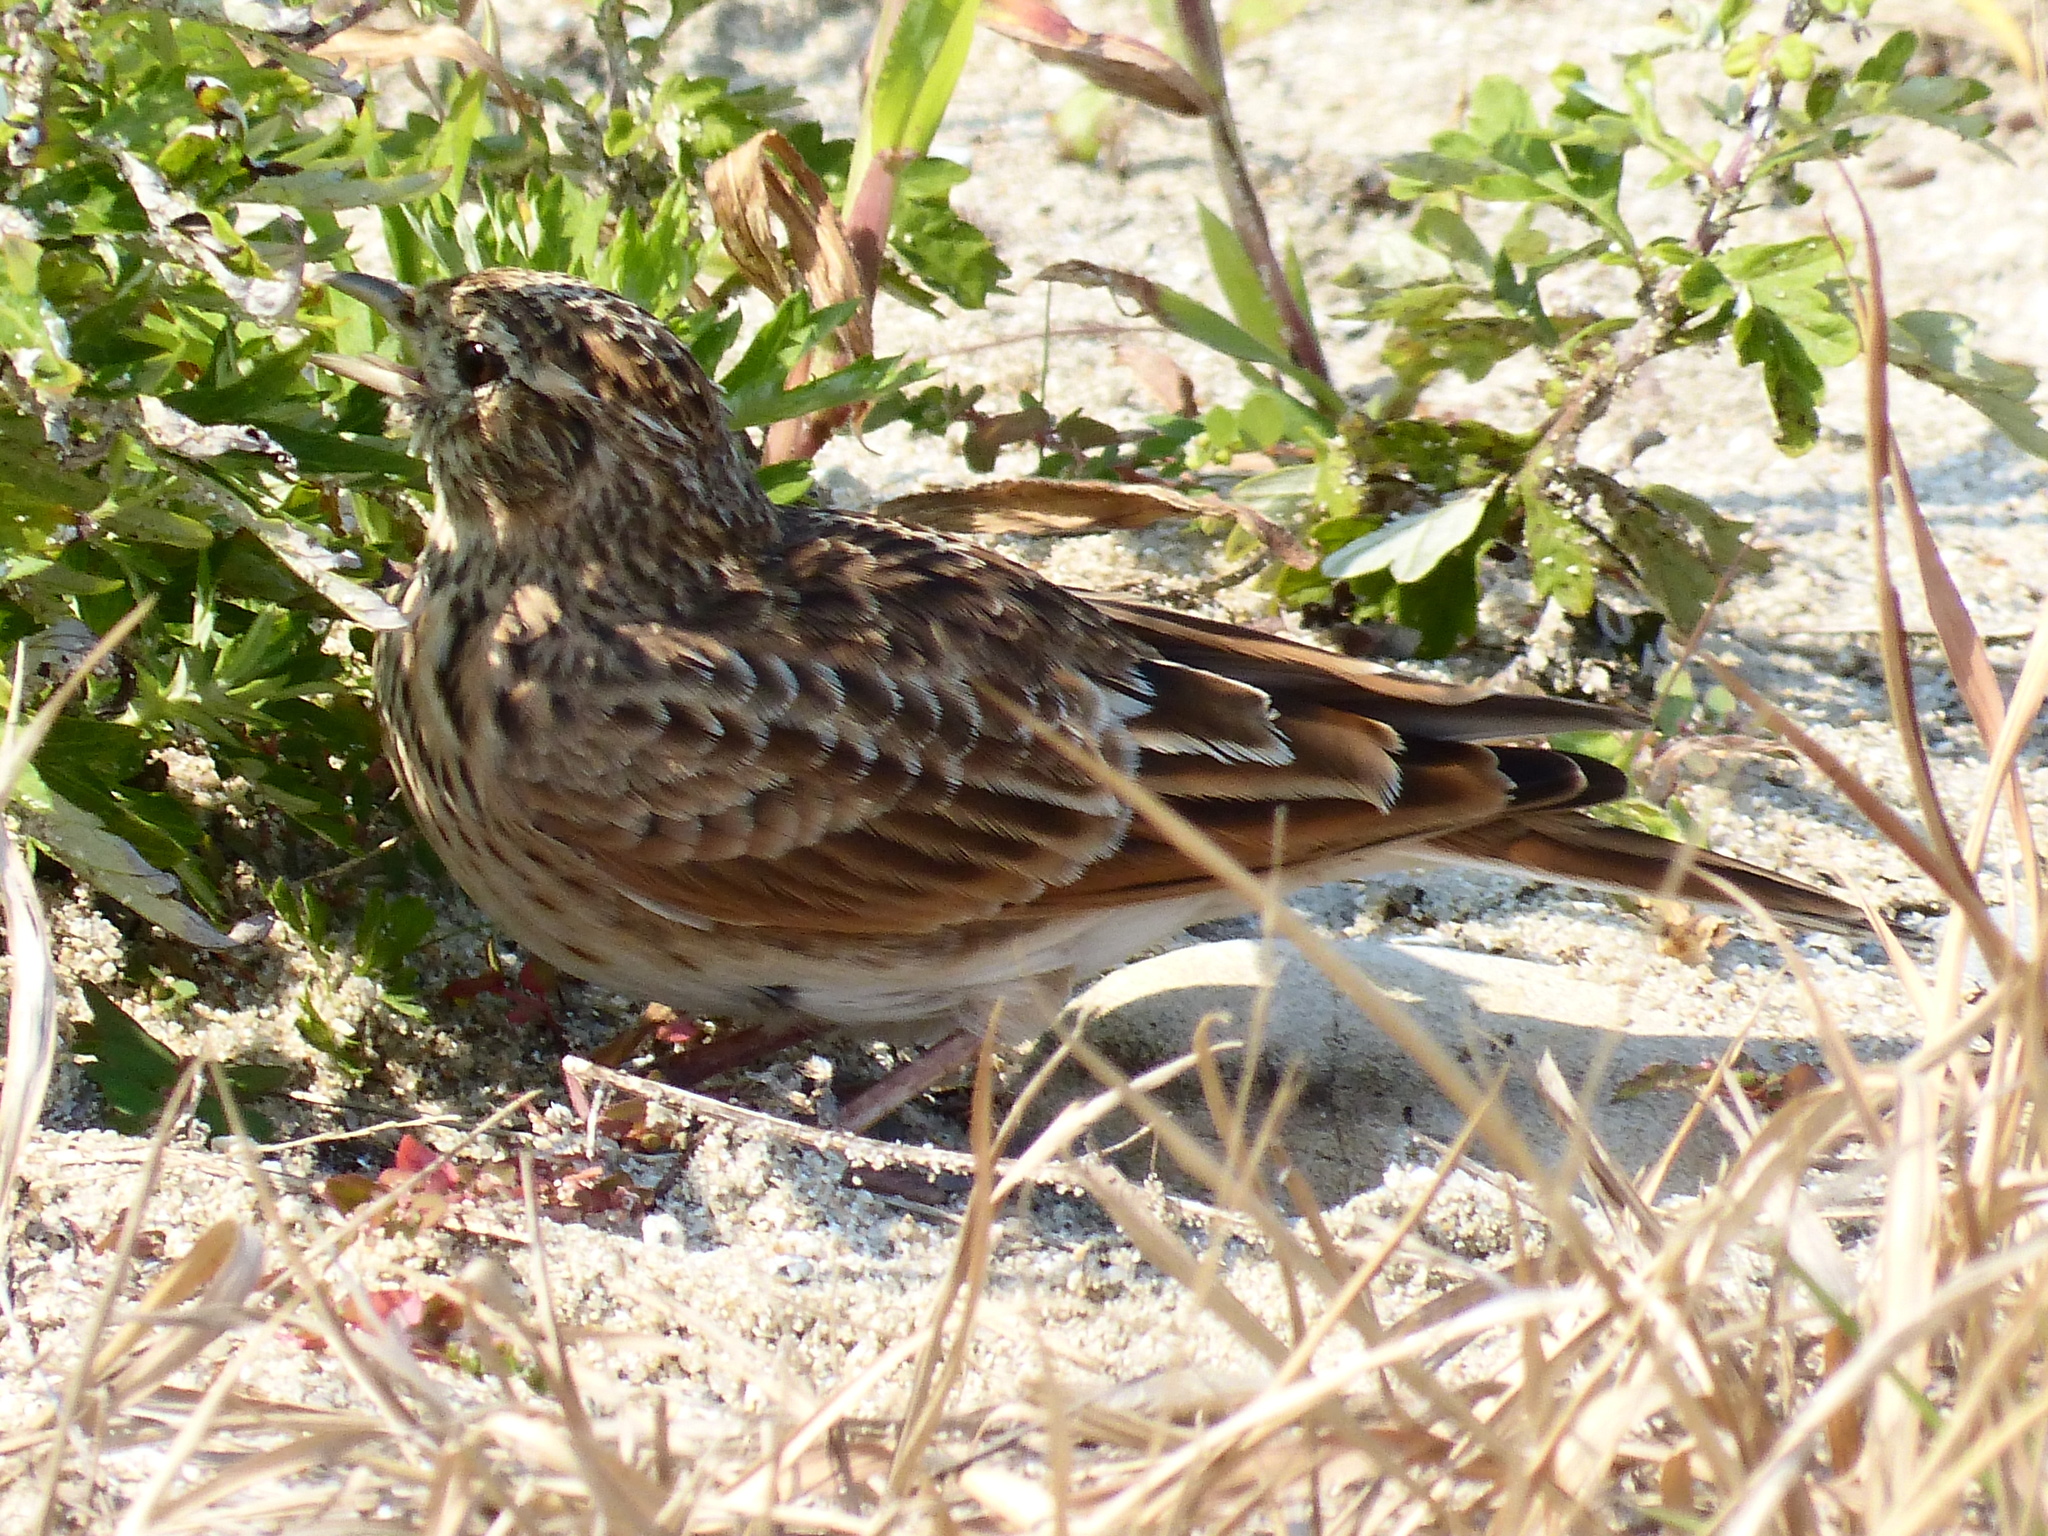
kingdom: Animalia
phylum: Chordata
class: Aves
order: Passeriformes
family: Alaudidae
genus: Alauda
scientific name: Alauda arvensis
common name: Eurasian skylark
